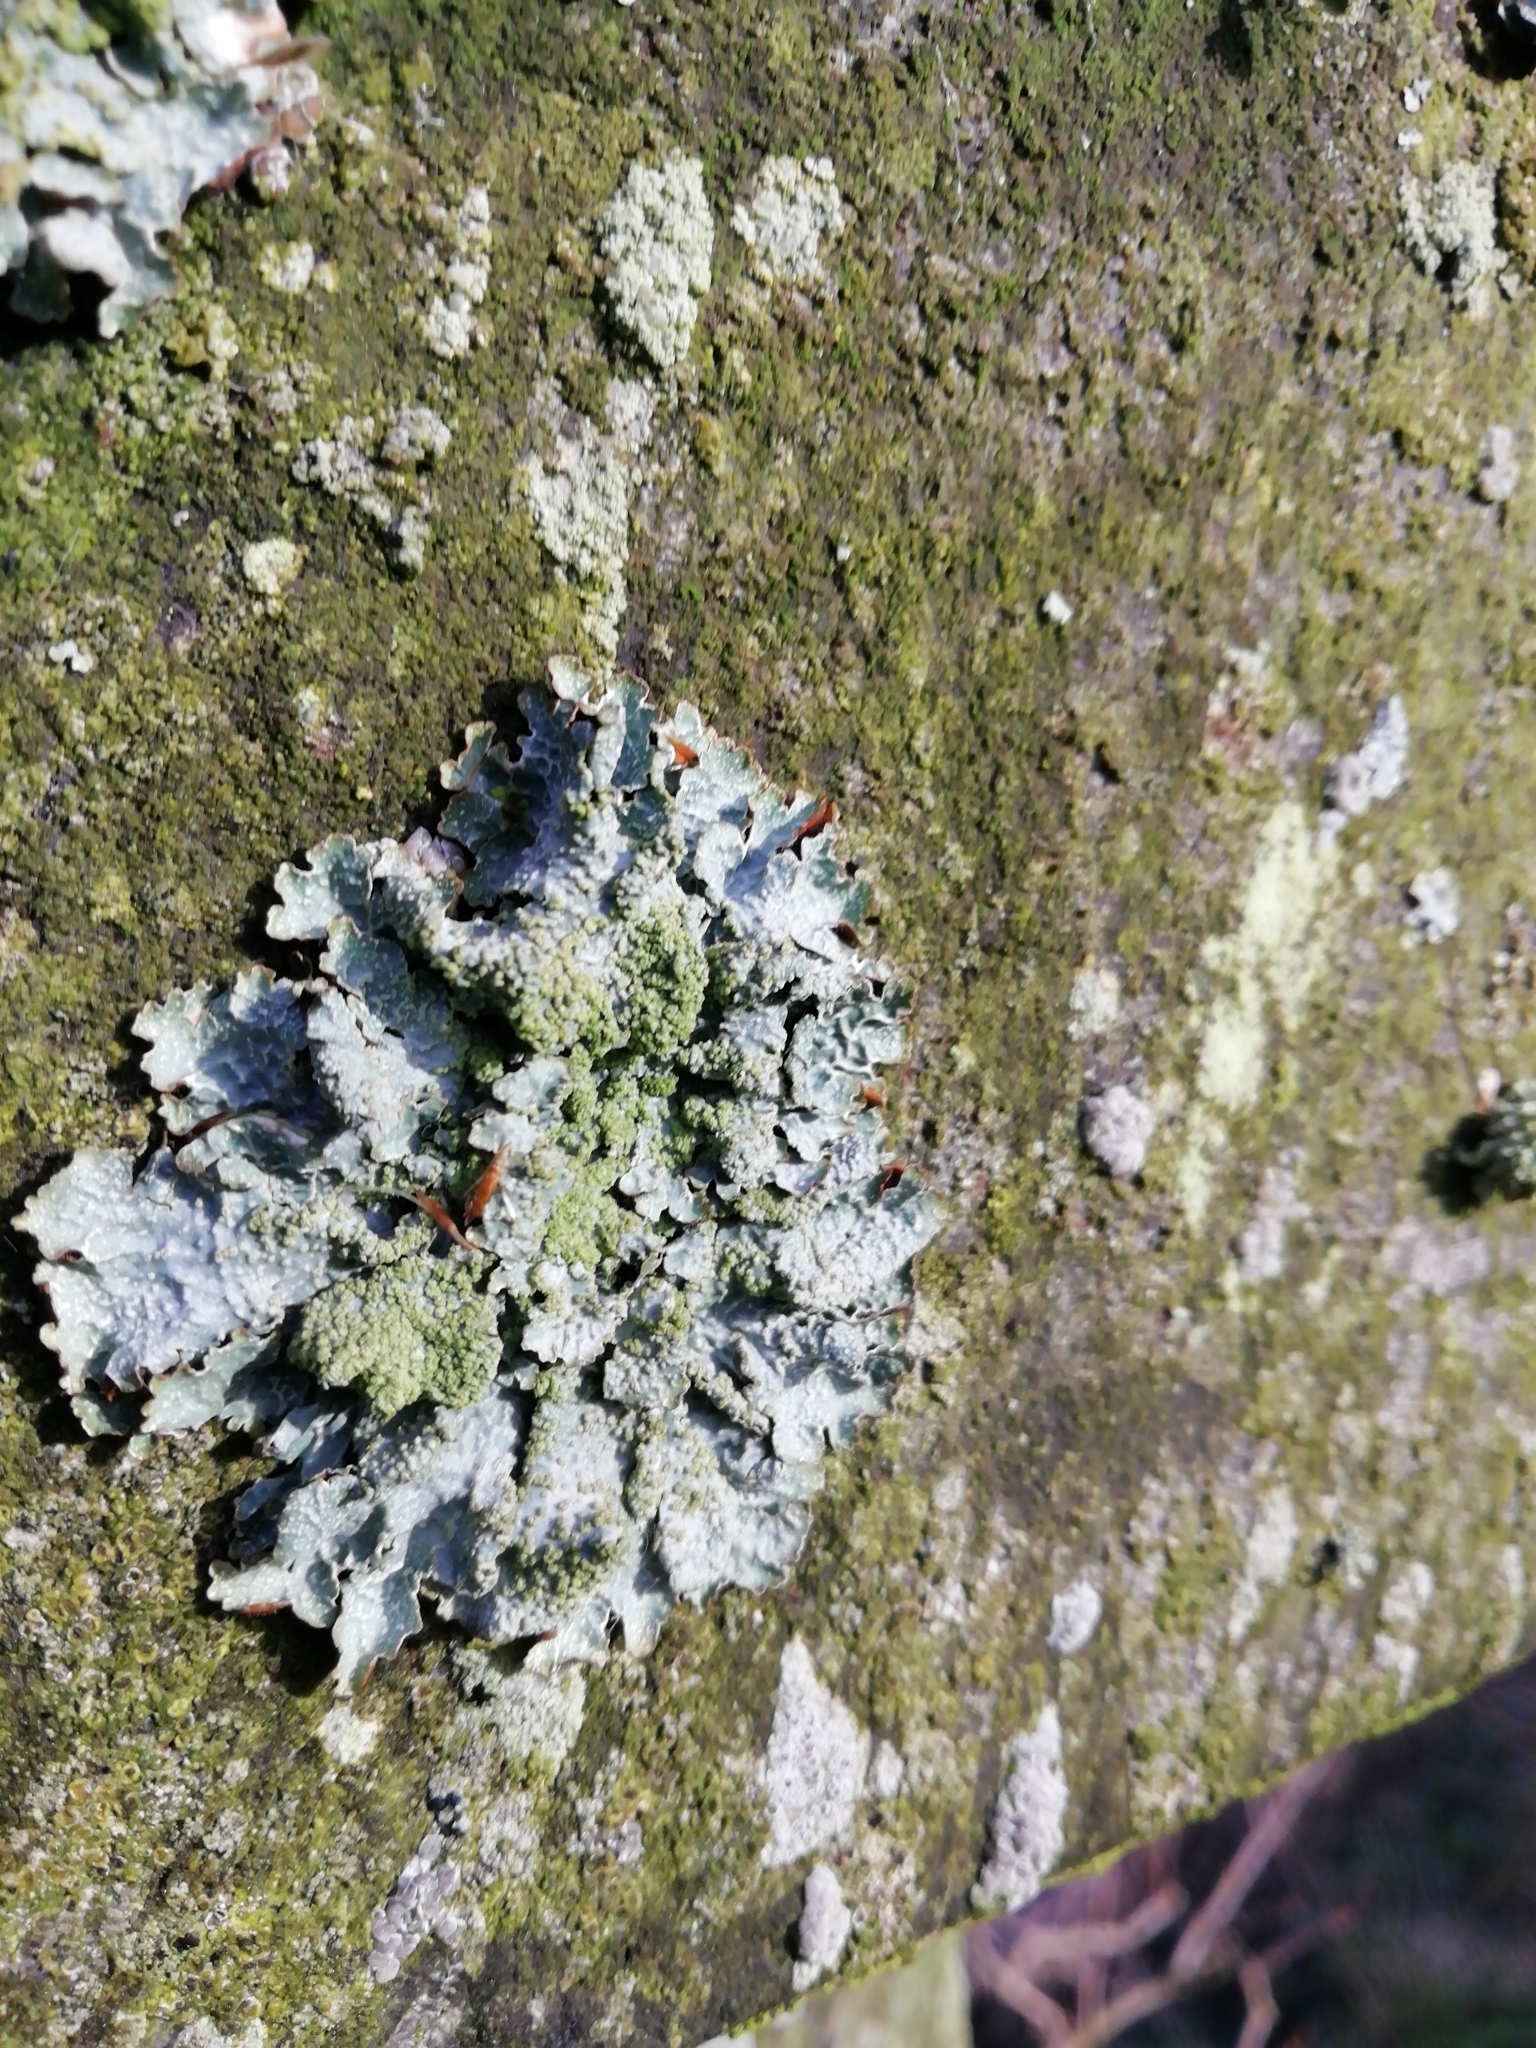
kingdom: Fungi
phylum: Ascomycota
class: Lecanoromycetes
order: Lecanorales
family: Parmeliaceae
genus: Parmelia
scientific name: Parmelia sulcata
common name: Netted shield lichen
